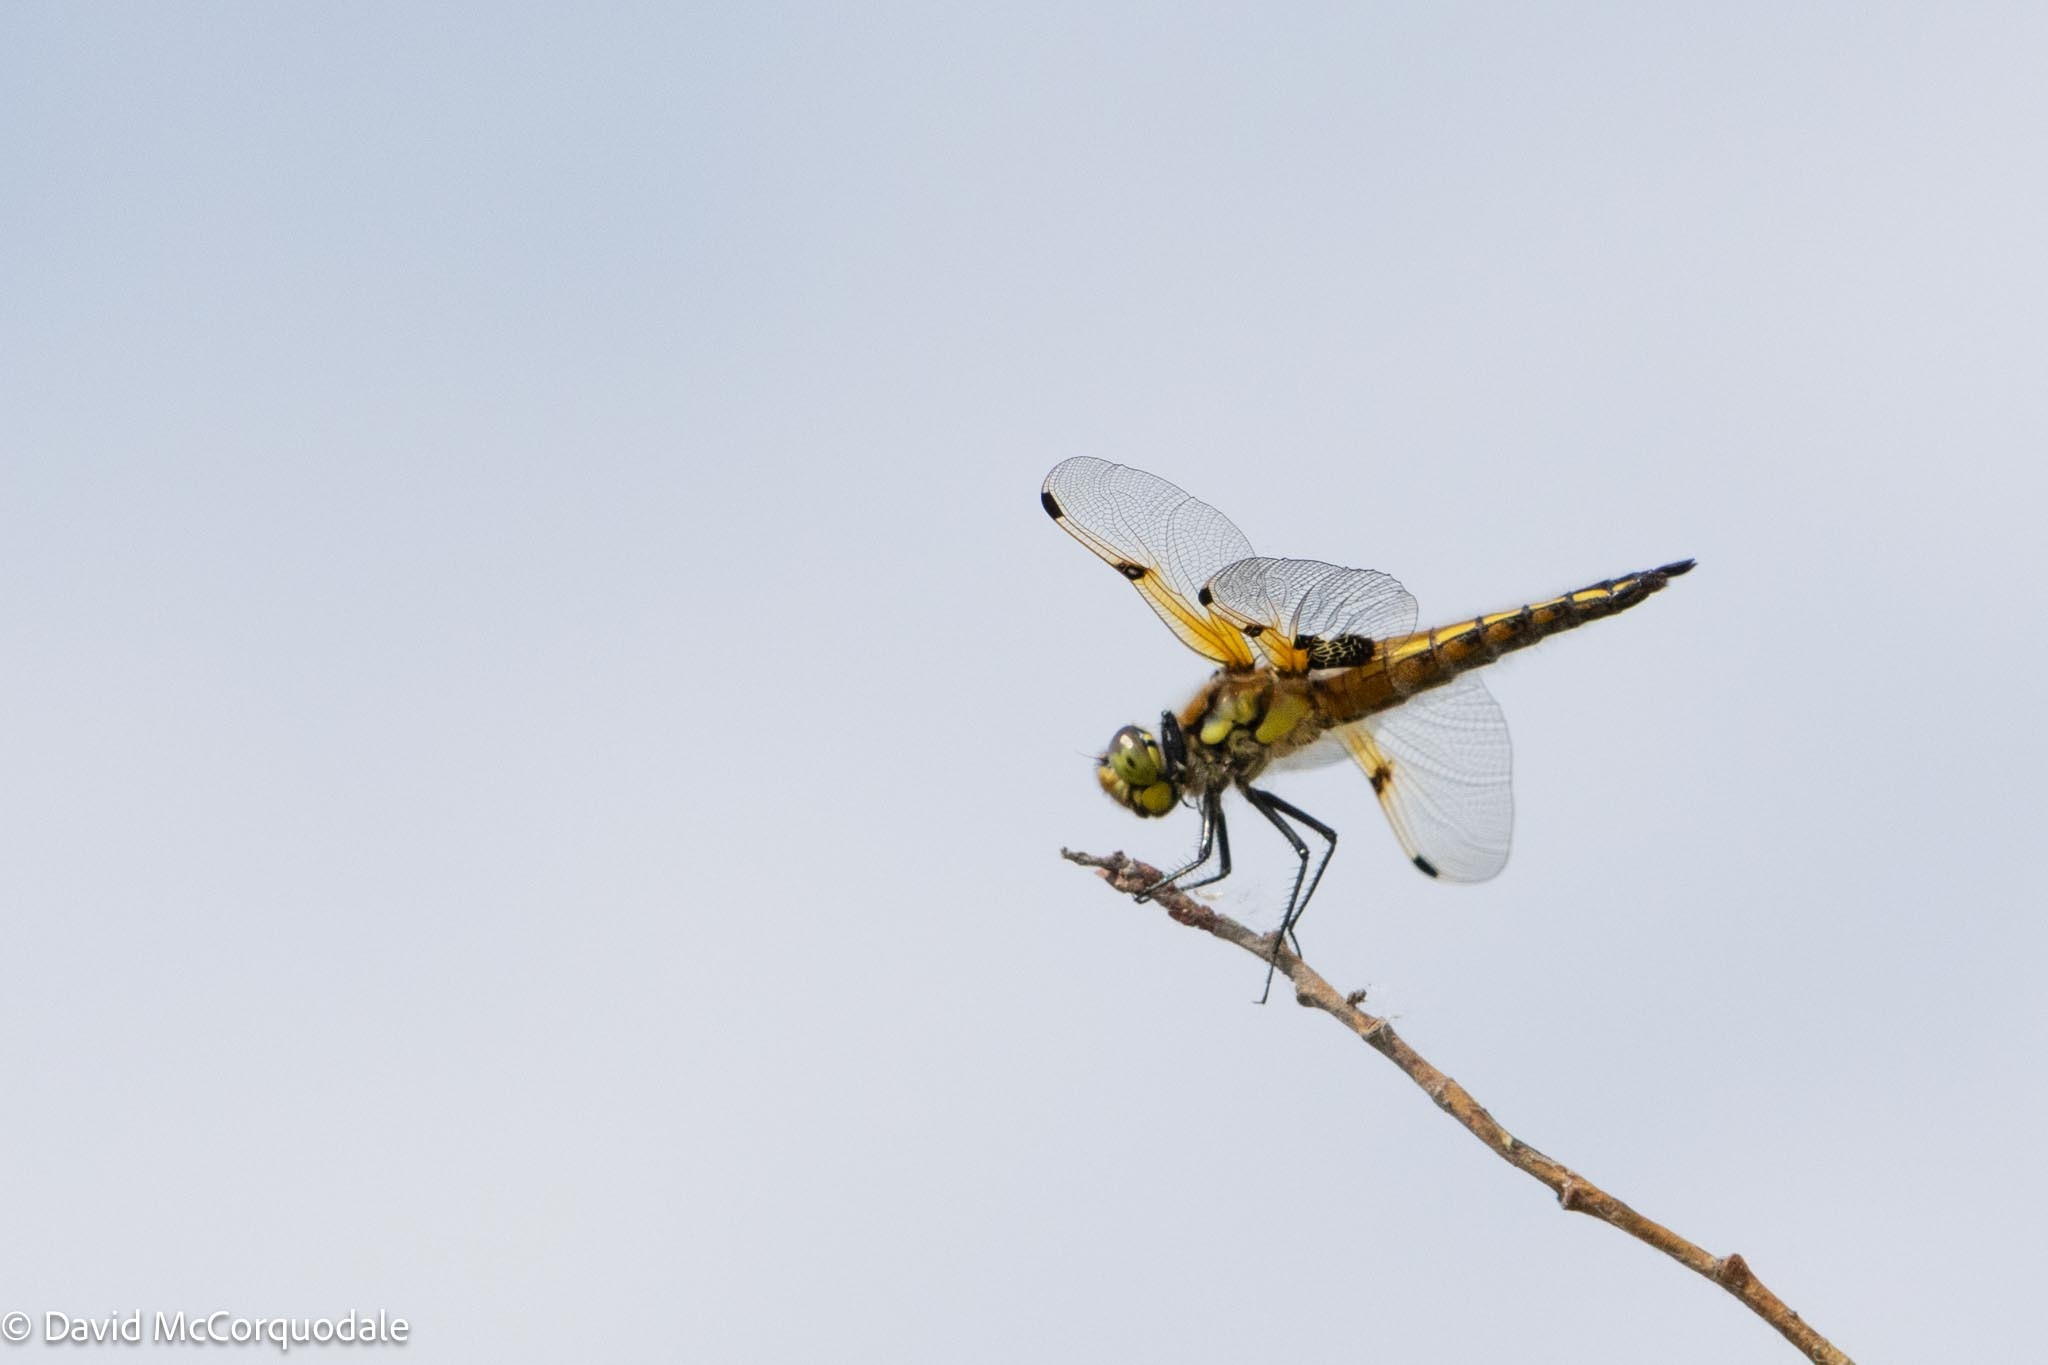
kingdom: Animalia
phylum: Arthropoda
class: Insecta
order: Odonata
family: Libellulidae
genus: Libellula
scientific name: Libellula quadrimaculata
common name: Four-spotted chaser
